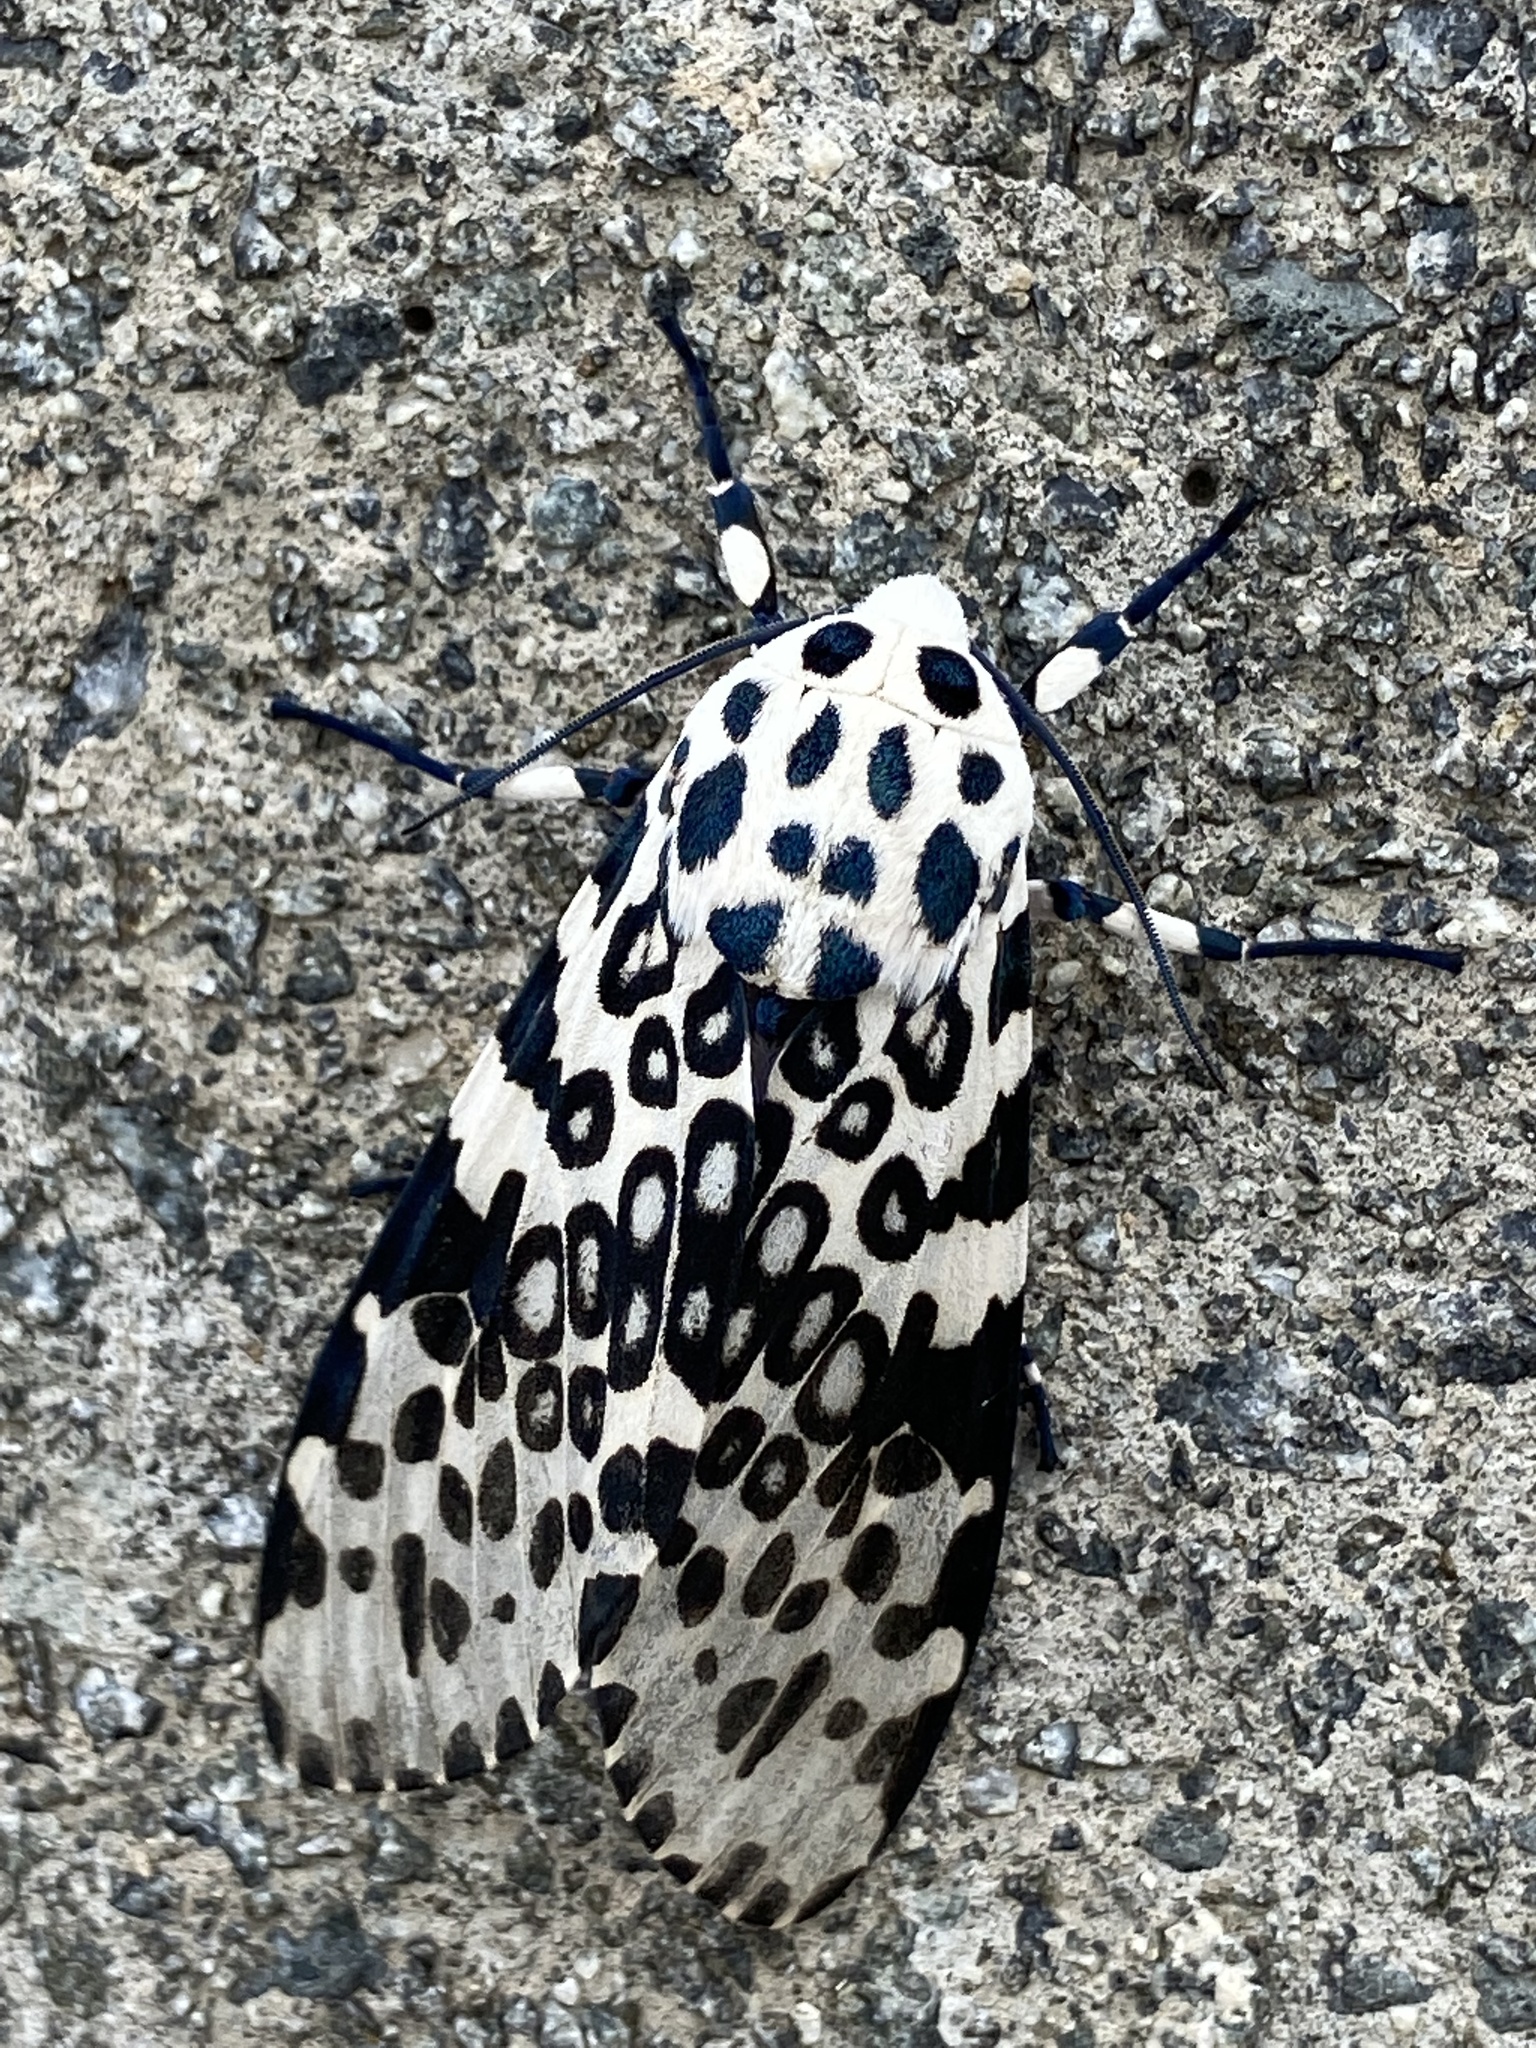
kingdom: Animalia
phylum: Arthropoda
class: Insecta
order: Lepidoptera
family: Erebidae
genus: Hypercompe
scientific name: Hypercompe scribonia
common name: Giant leopard moth
